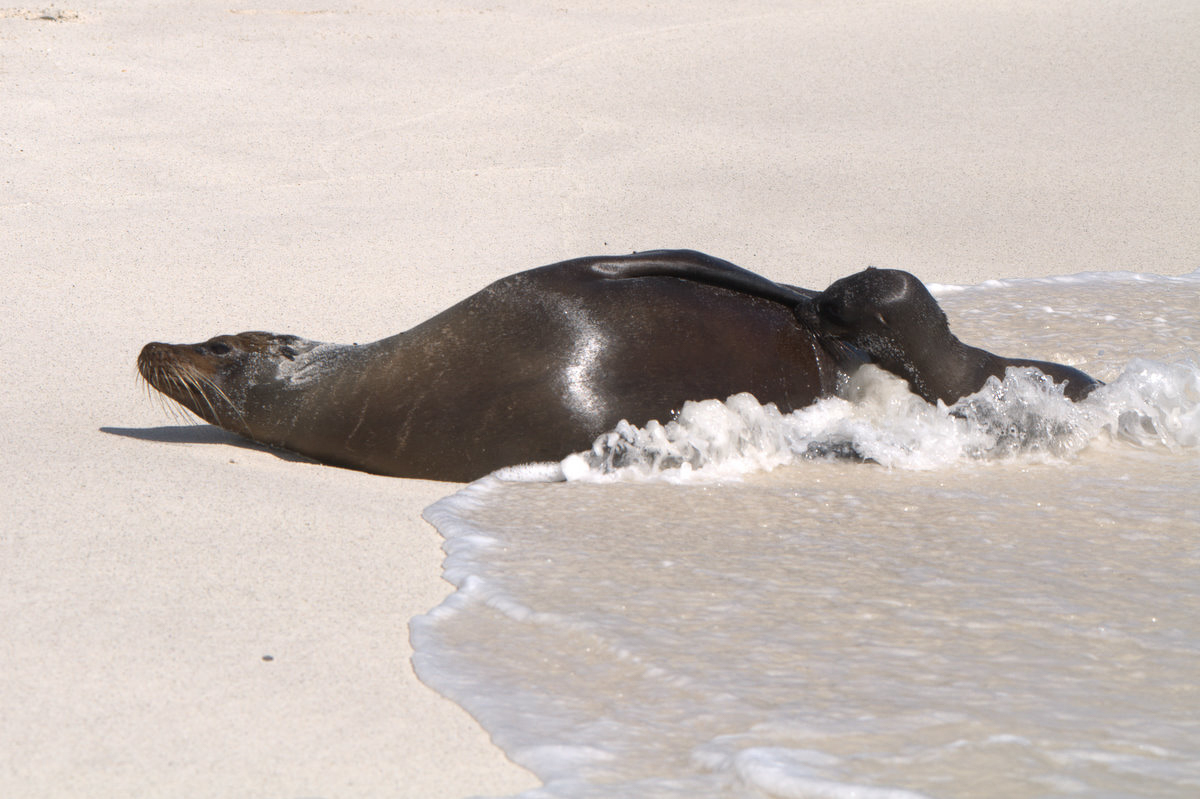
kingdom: Animalia
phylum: Chordata
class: Mammalia
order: Carnivora
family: Otariidae
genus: Zalophus
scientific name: Zalophus wollebaeki
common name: Galapagos sea lion
